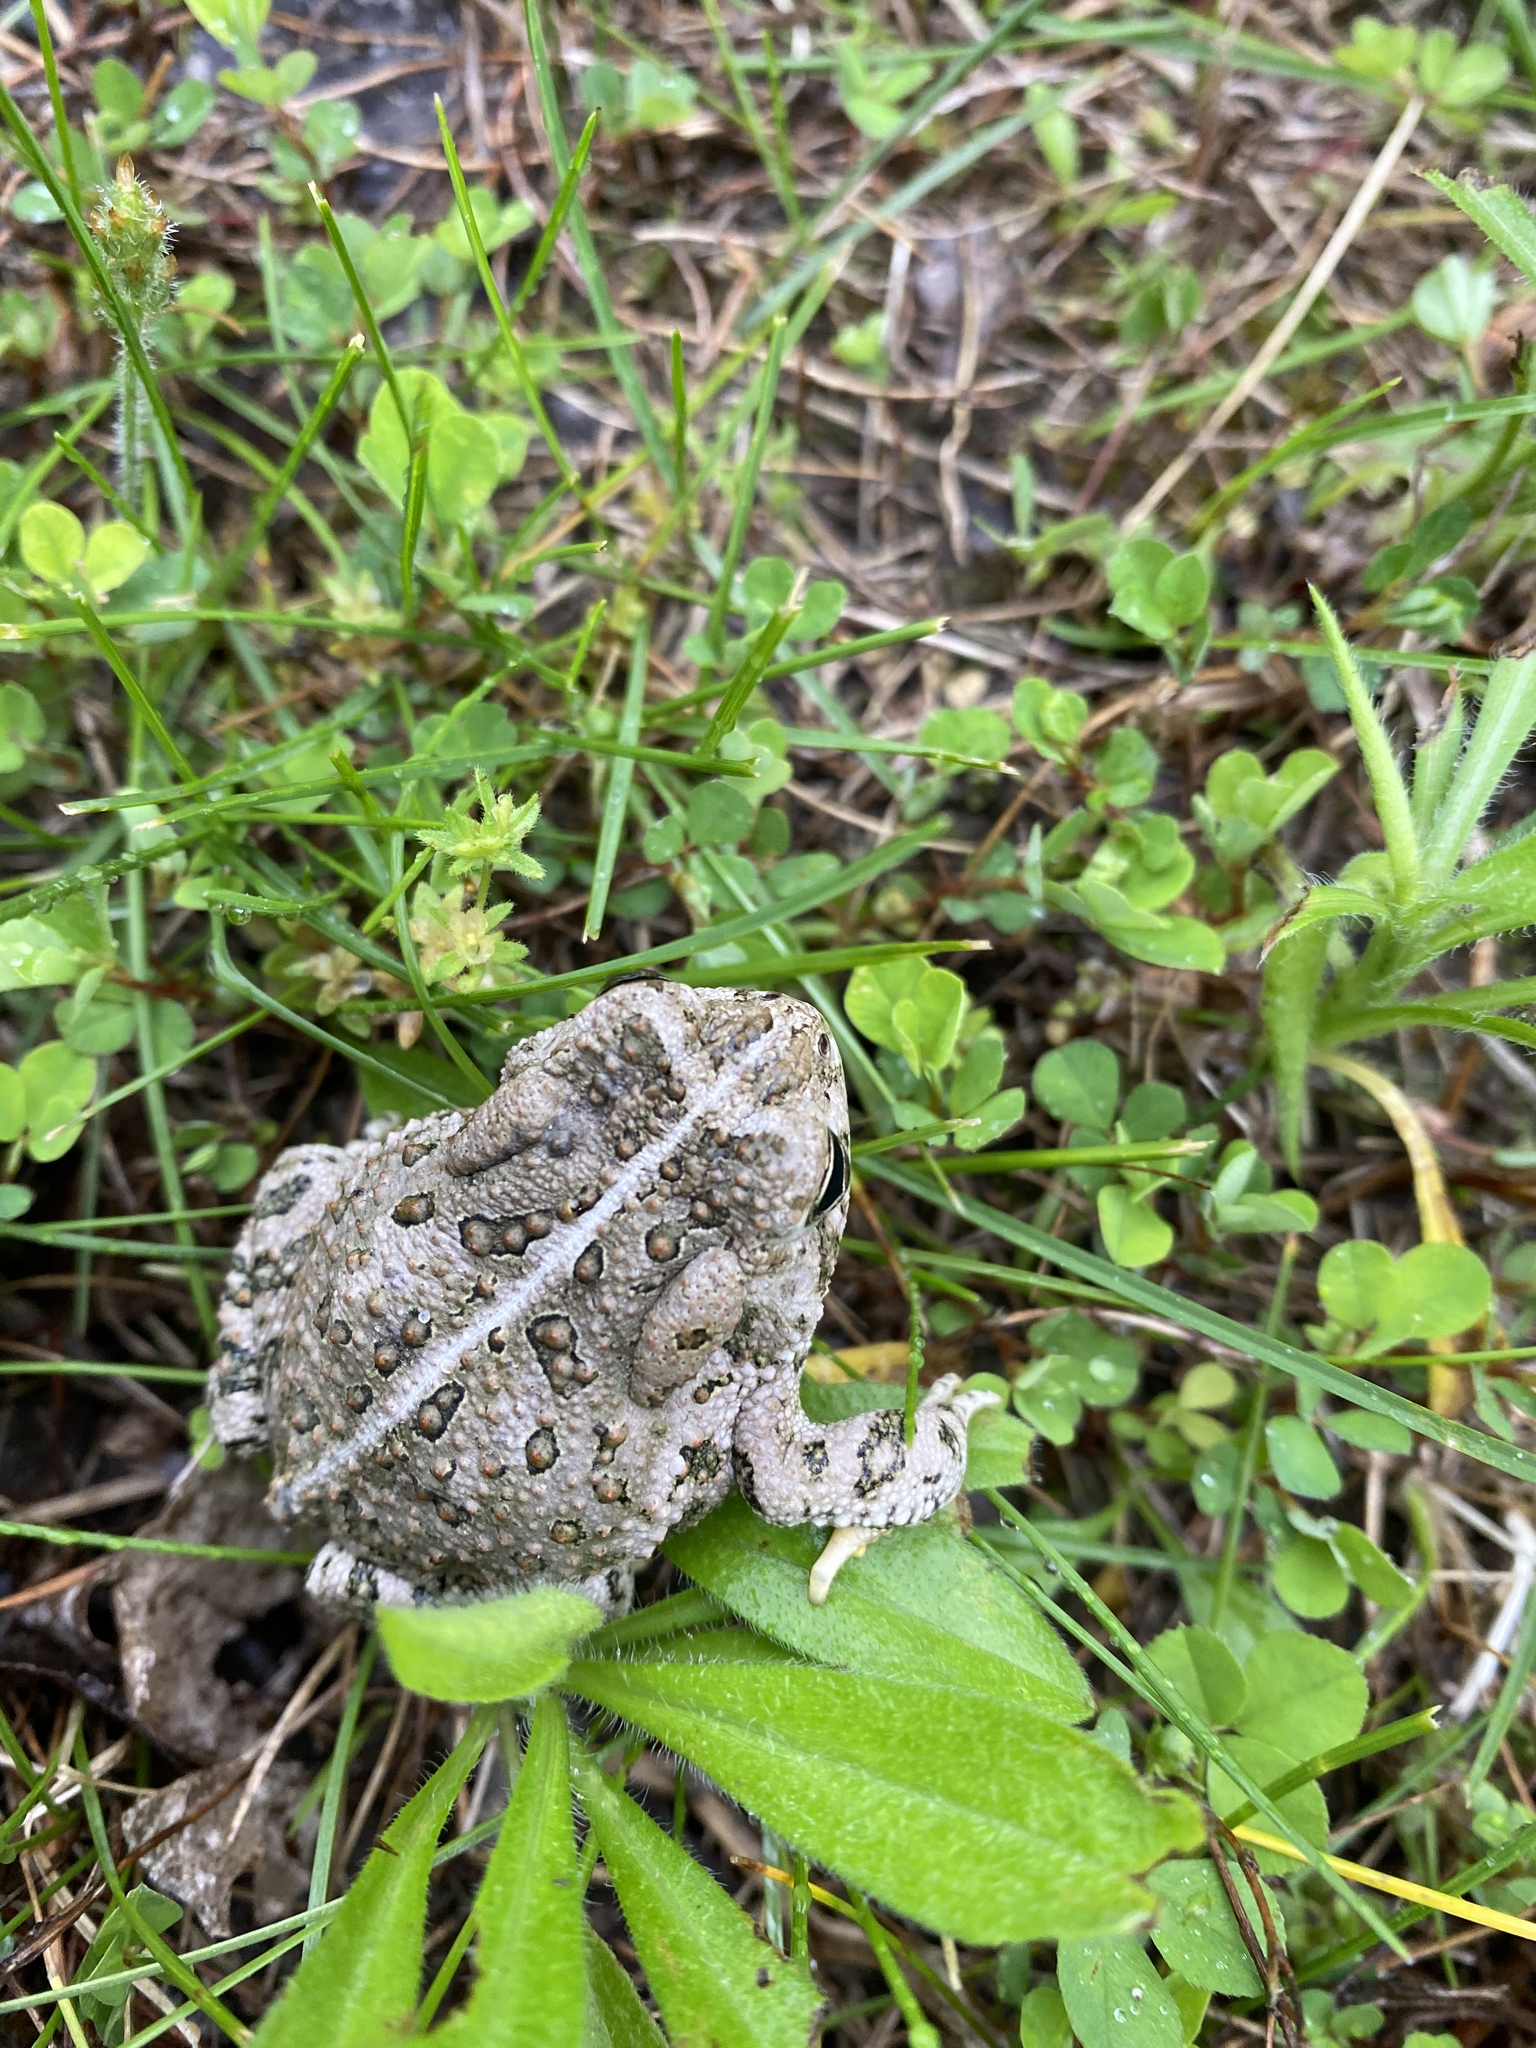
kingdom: Animalia
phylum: Chordata
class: Amphibia
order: Anura
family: Bufonidae
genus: Anaxyrus
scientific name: Anaxyrus woodhousii
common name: Woodhouse's toad
